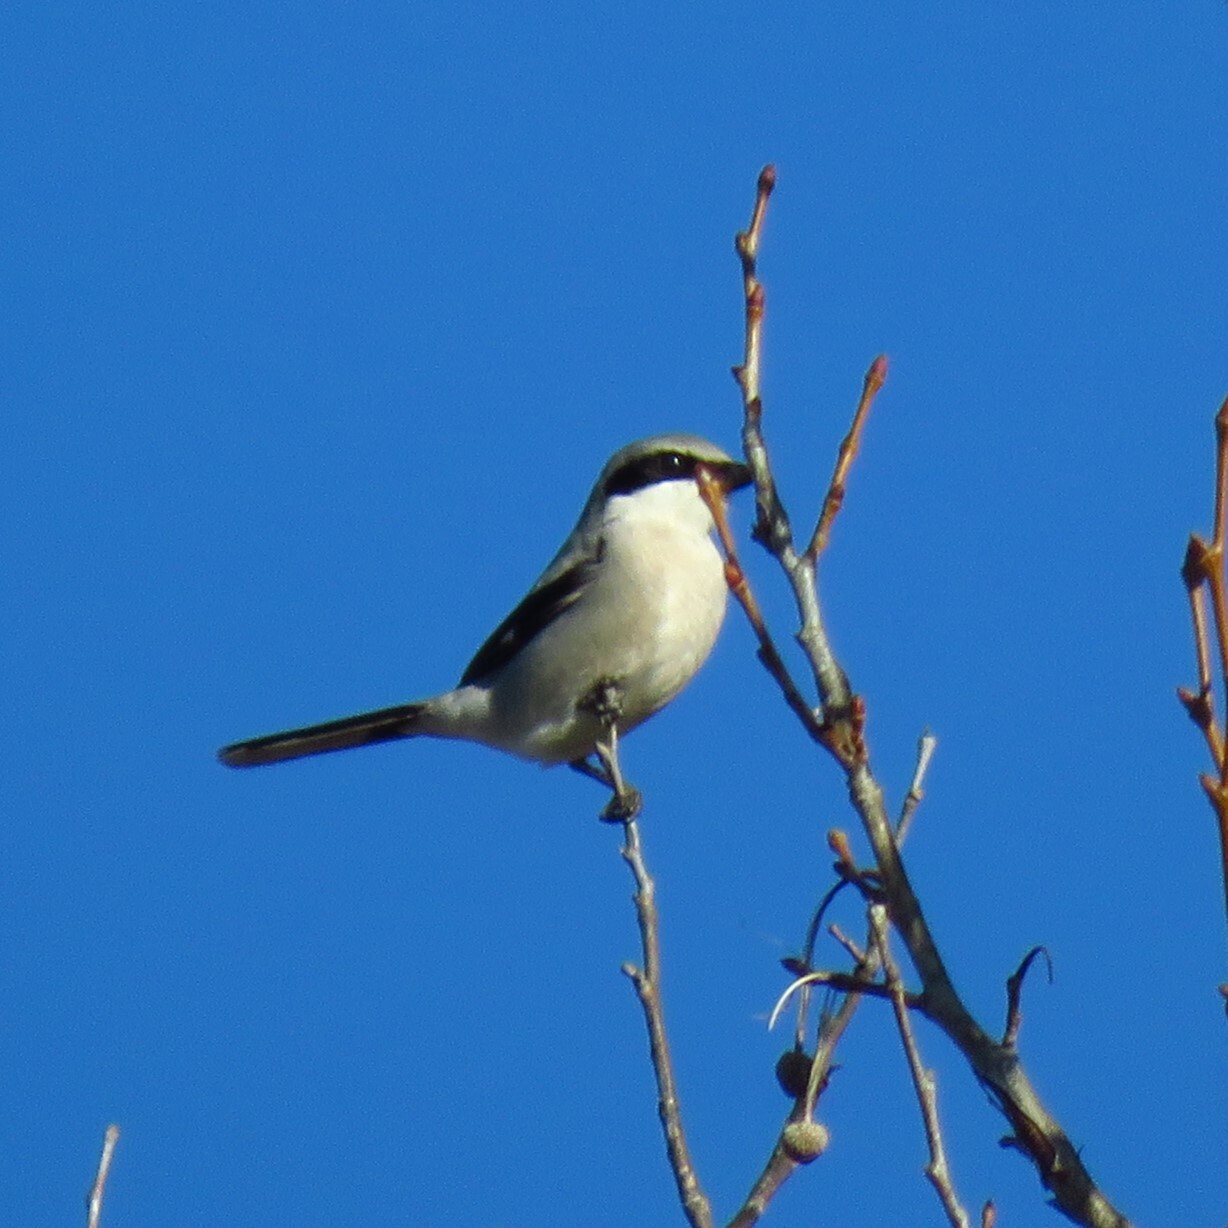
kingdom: Animalia
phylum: Chordata
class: Aves
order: Passeriformes
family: Laniidae
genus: Lanius
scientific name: Lanius ludovicianus
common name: Loggerhead shrike
